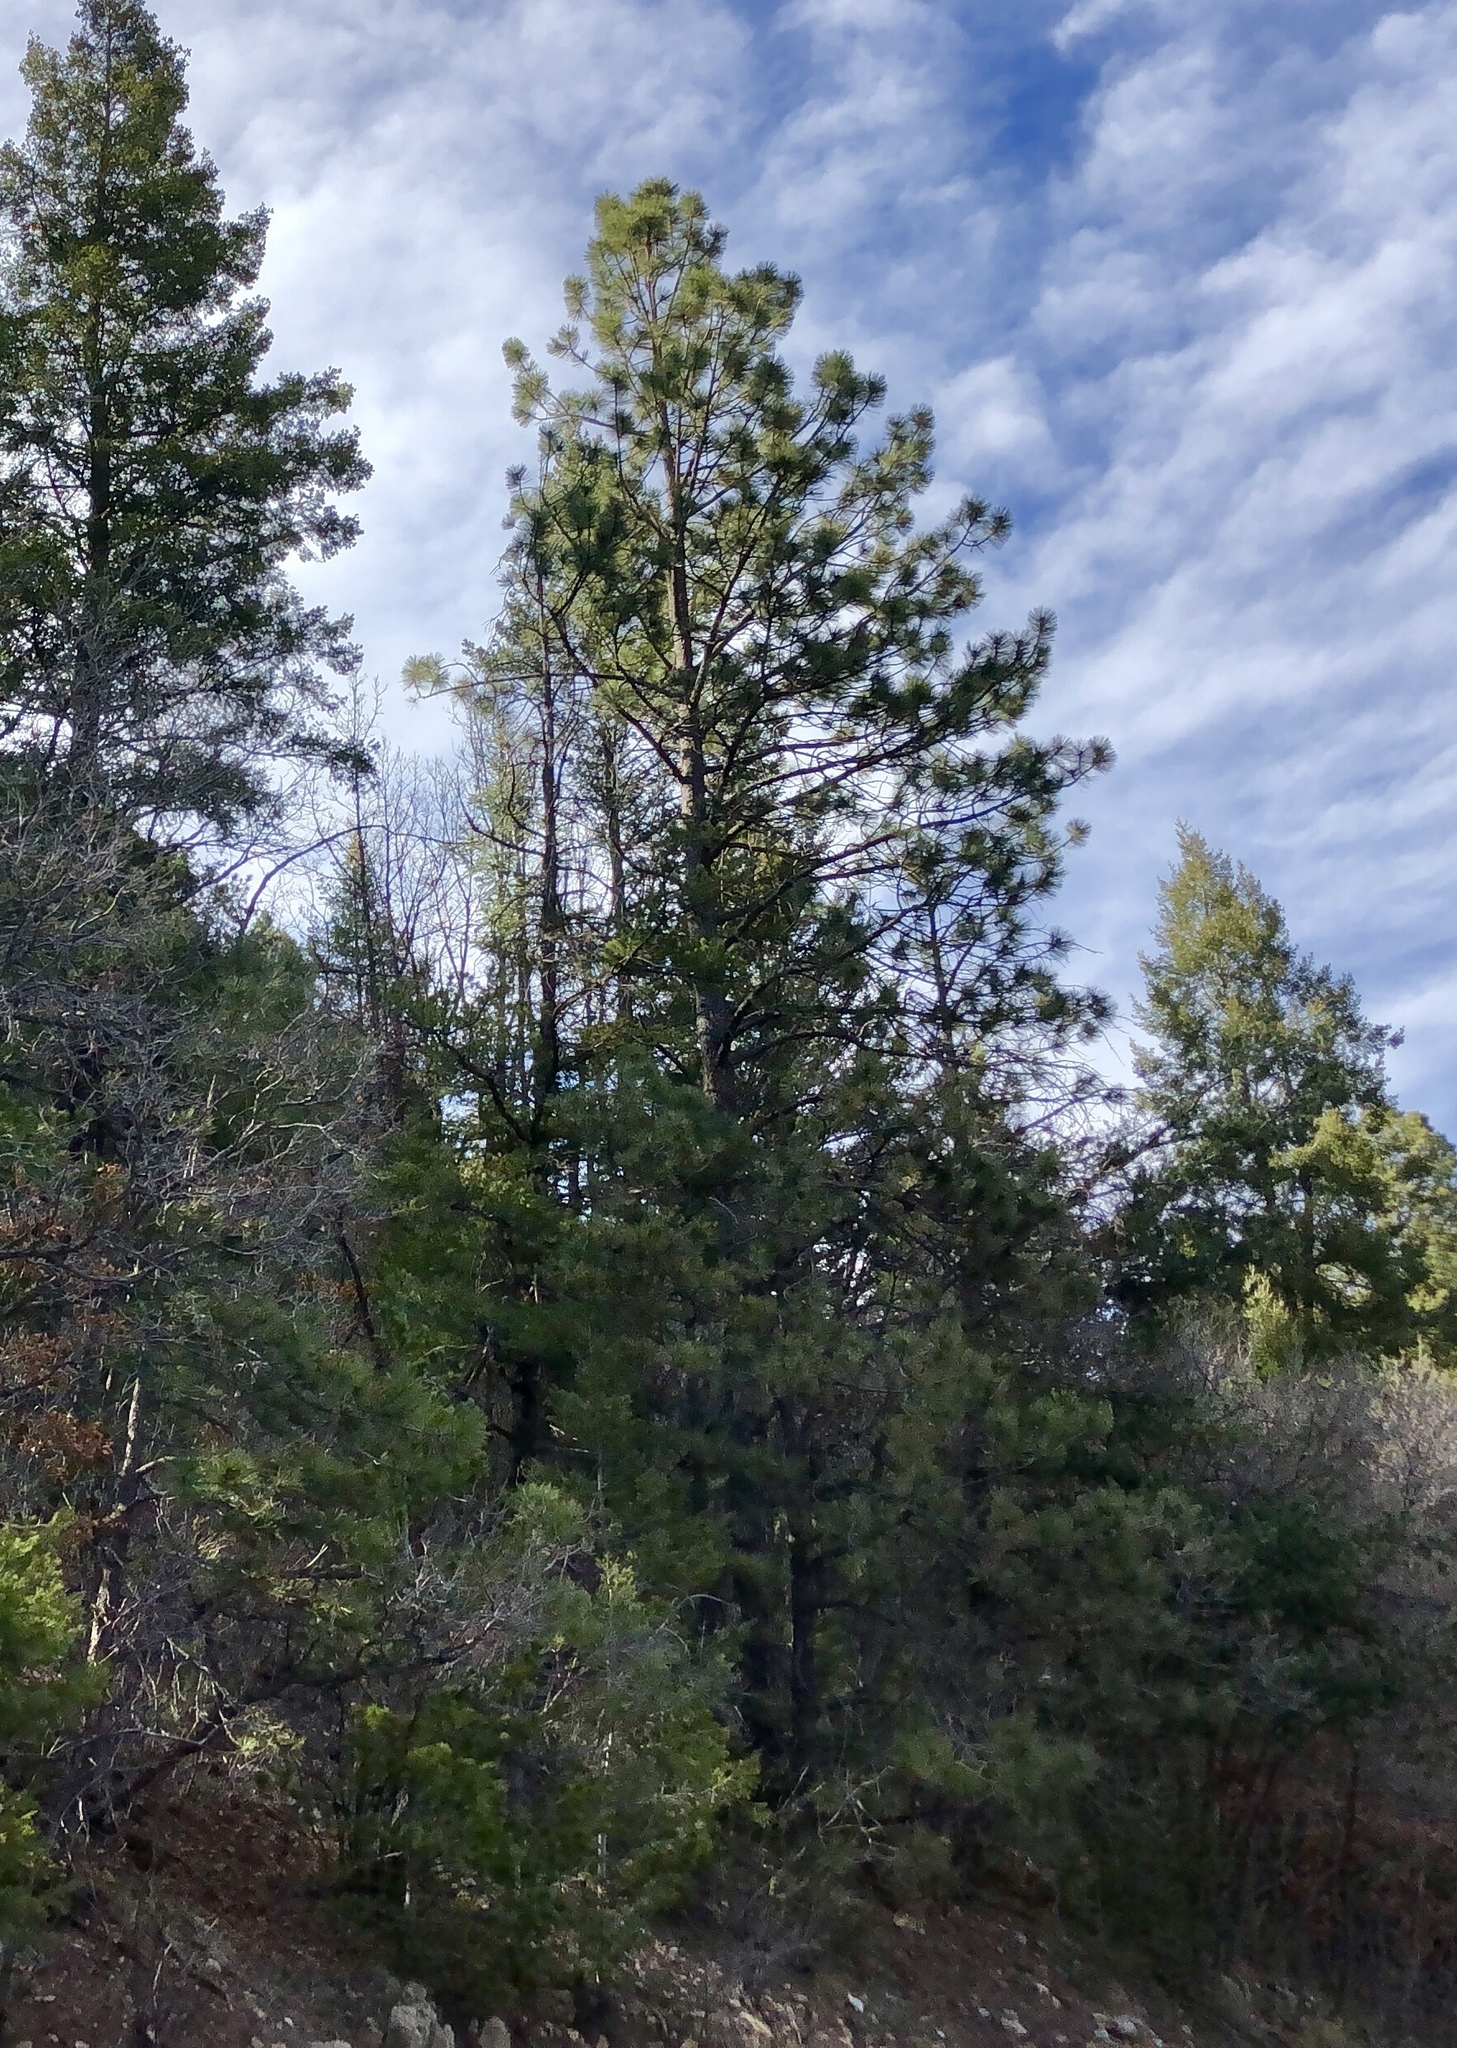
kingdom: Plantae
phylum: Tracheophyta
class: Pinopsida
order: Pinales
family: Pinaceae
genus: Pinus
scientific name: Pinus ponderosa
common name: Western yellow-pine
